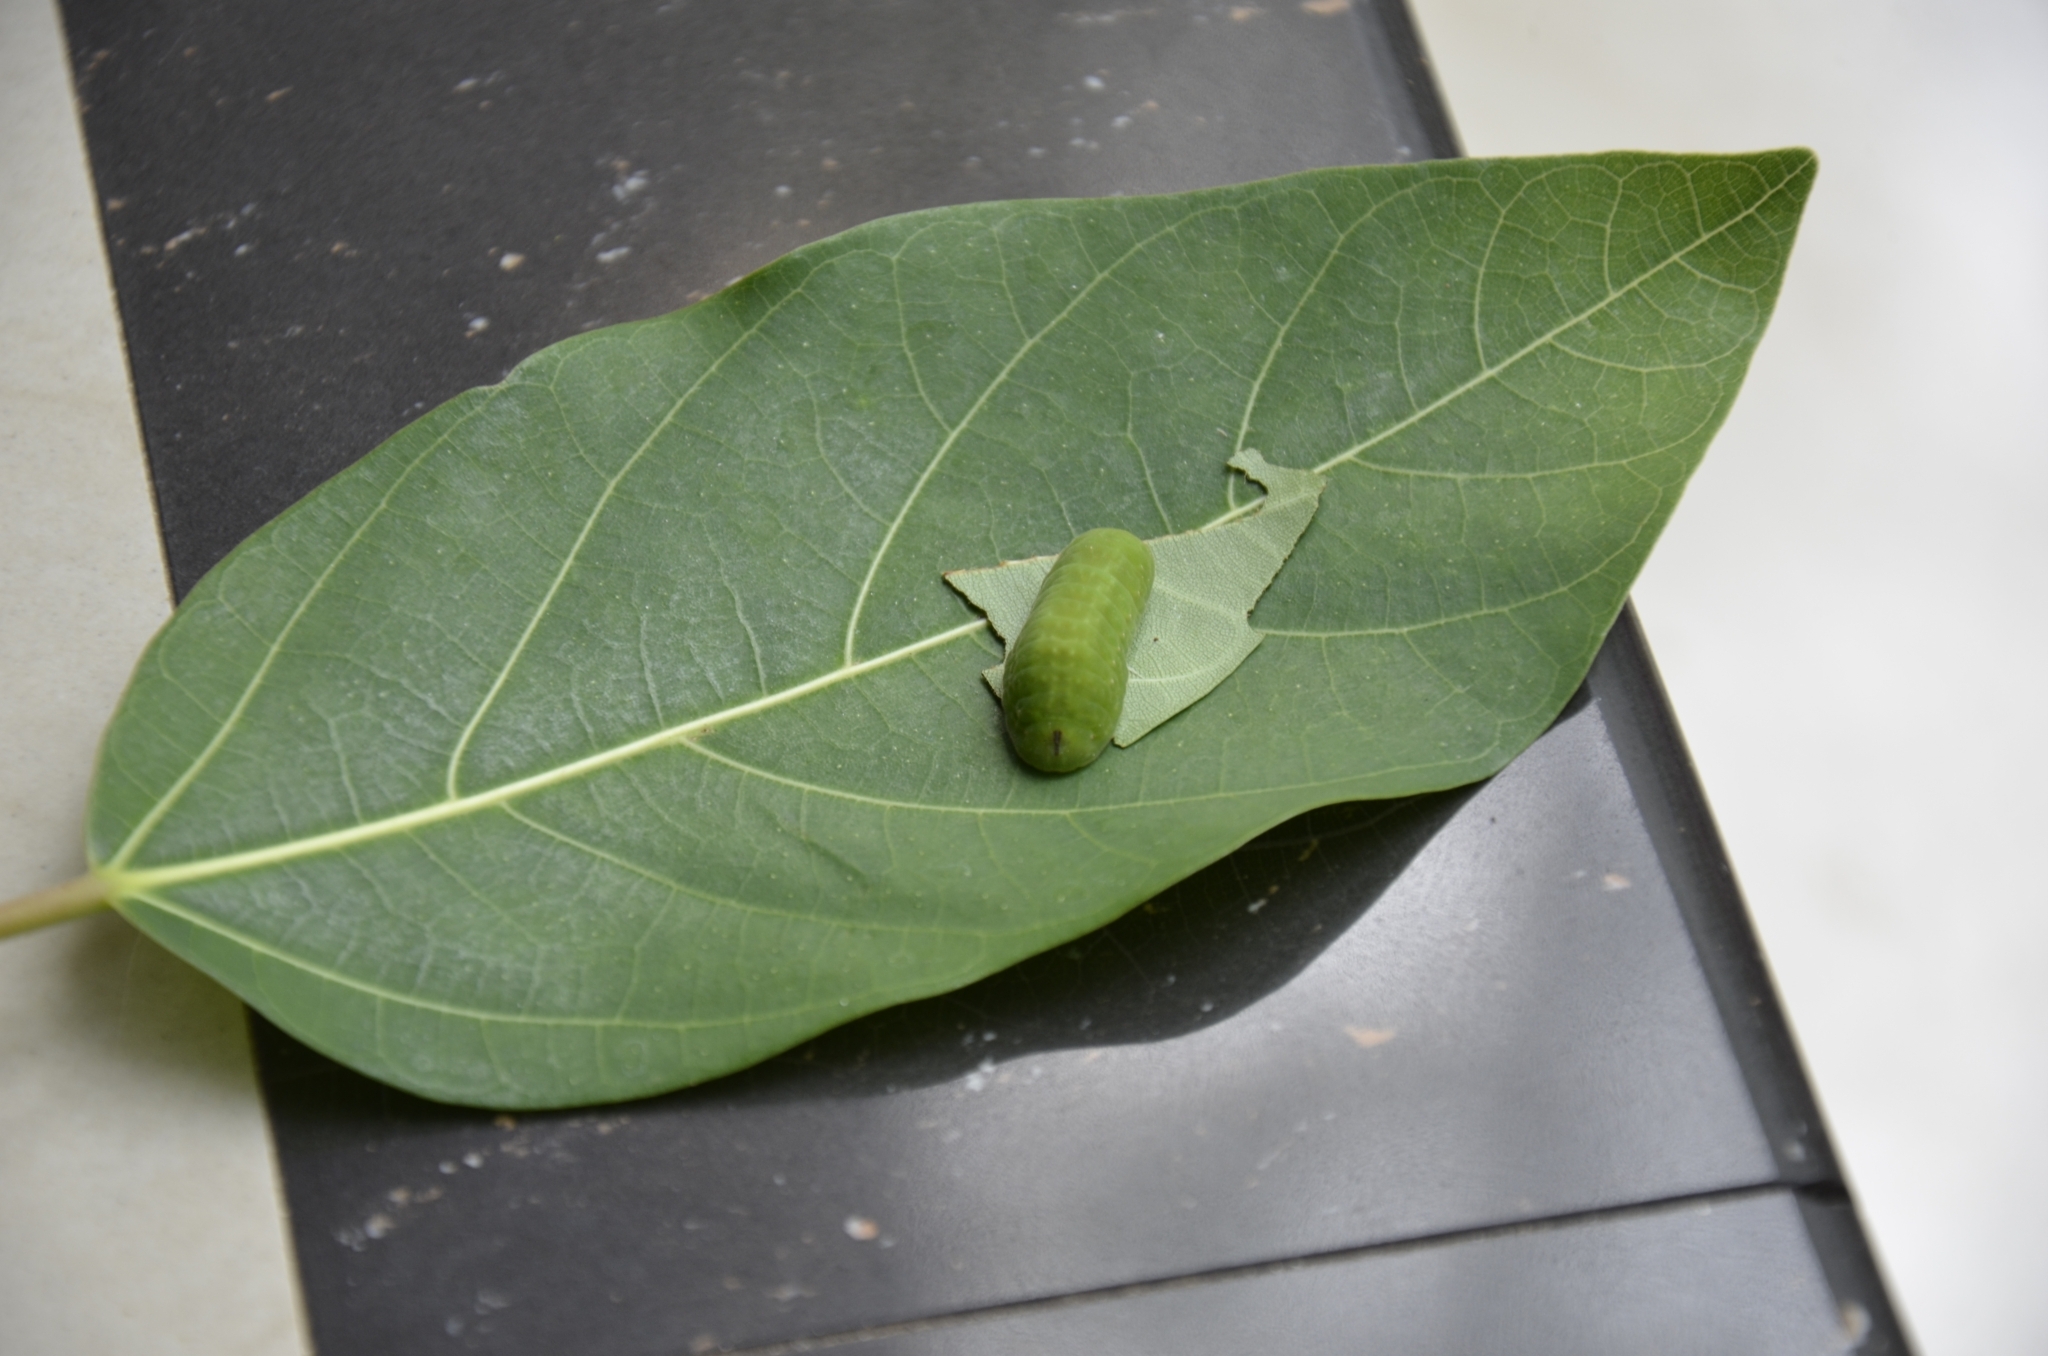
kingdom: Animalia
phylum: Arthropoda
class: Insecta
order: Lepidoptera
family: Lycaenidae
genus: Iraota
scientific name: Iraota timoleon
